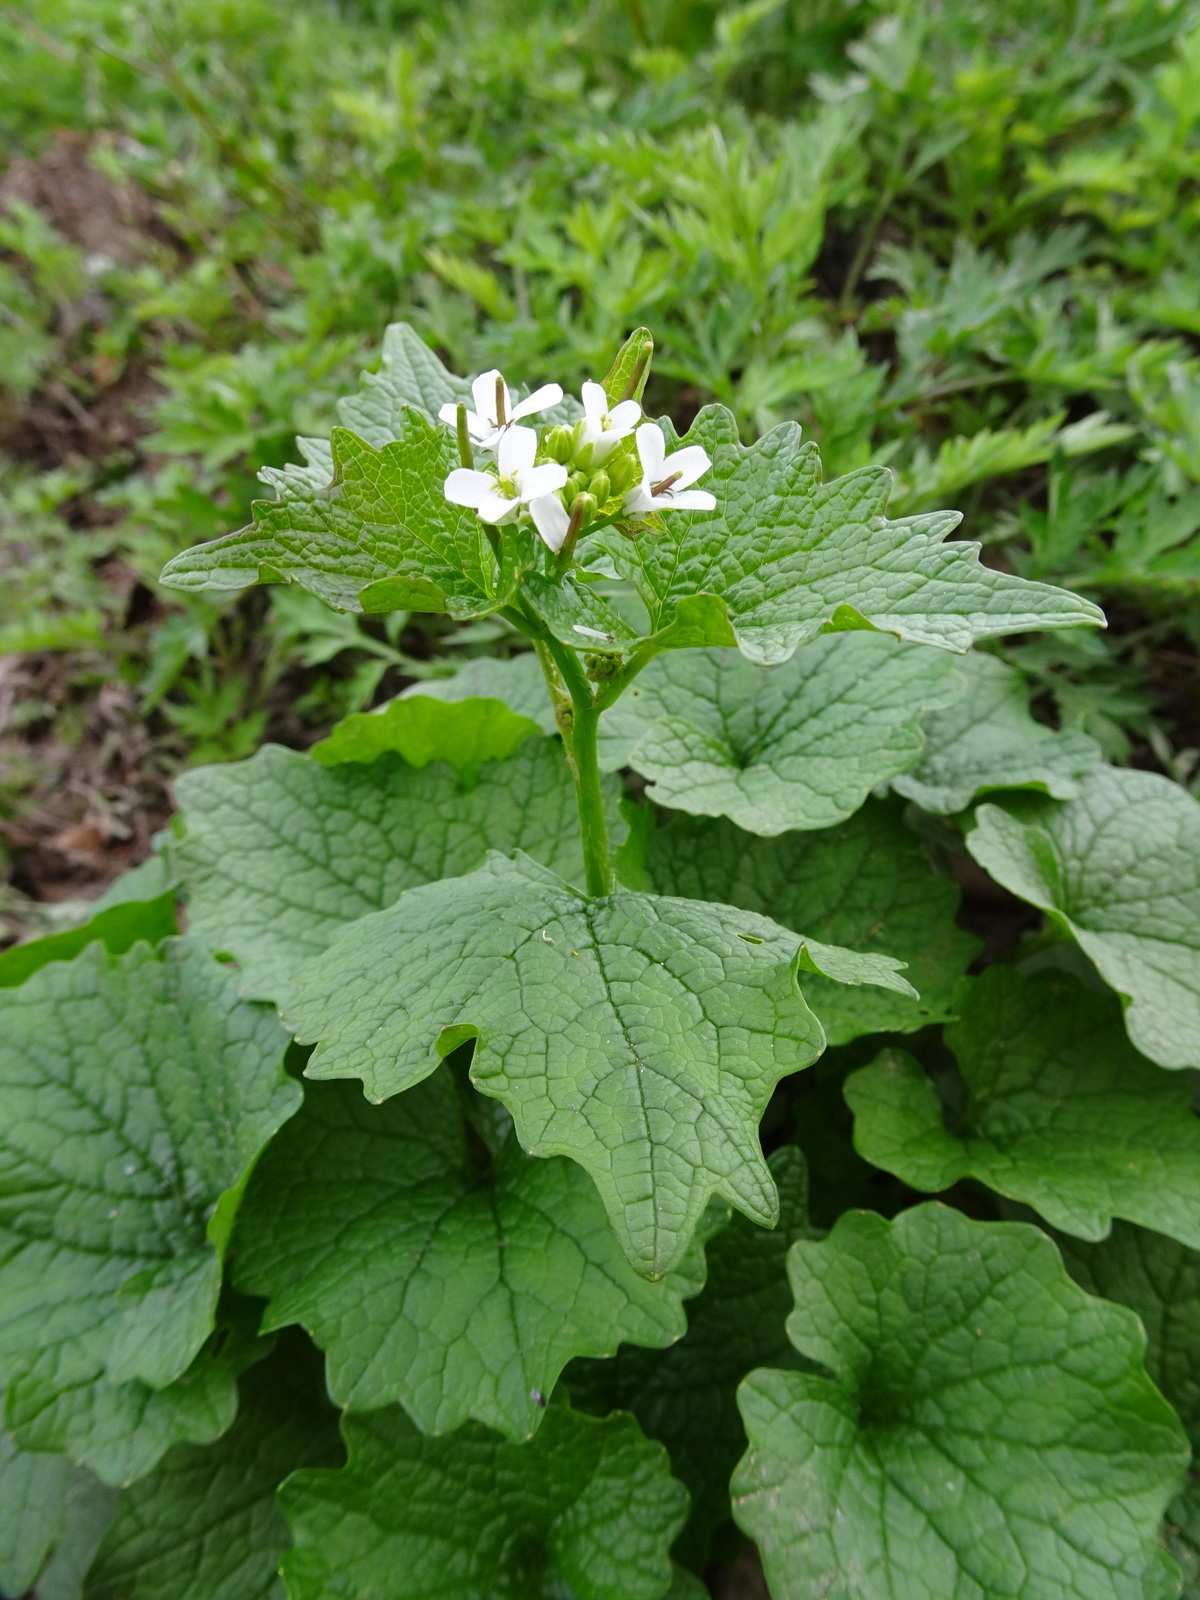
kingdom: Plantae
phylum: Tracheophyta
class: Magnoliopsida
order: Brassicales
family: Brassicaceae
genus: Alliaria
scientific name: Alliaria petiolata
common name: Garlic mustard
